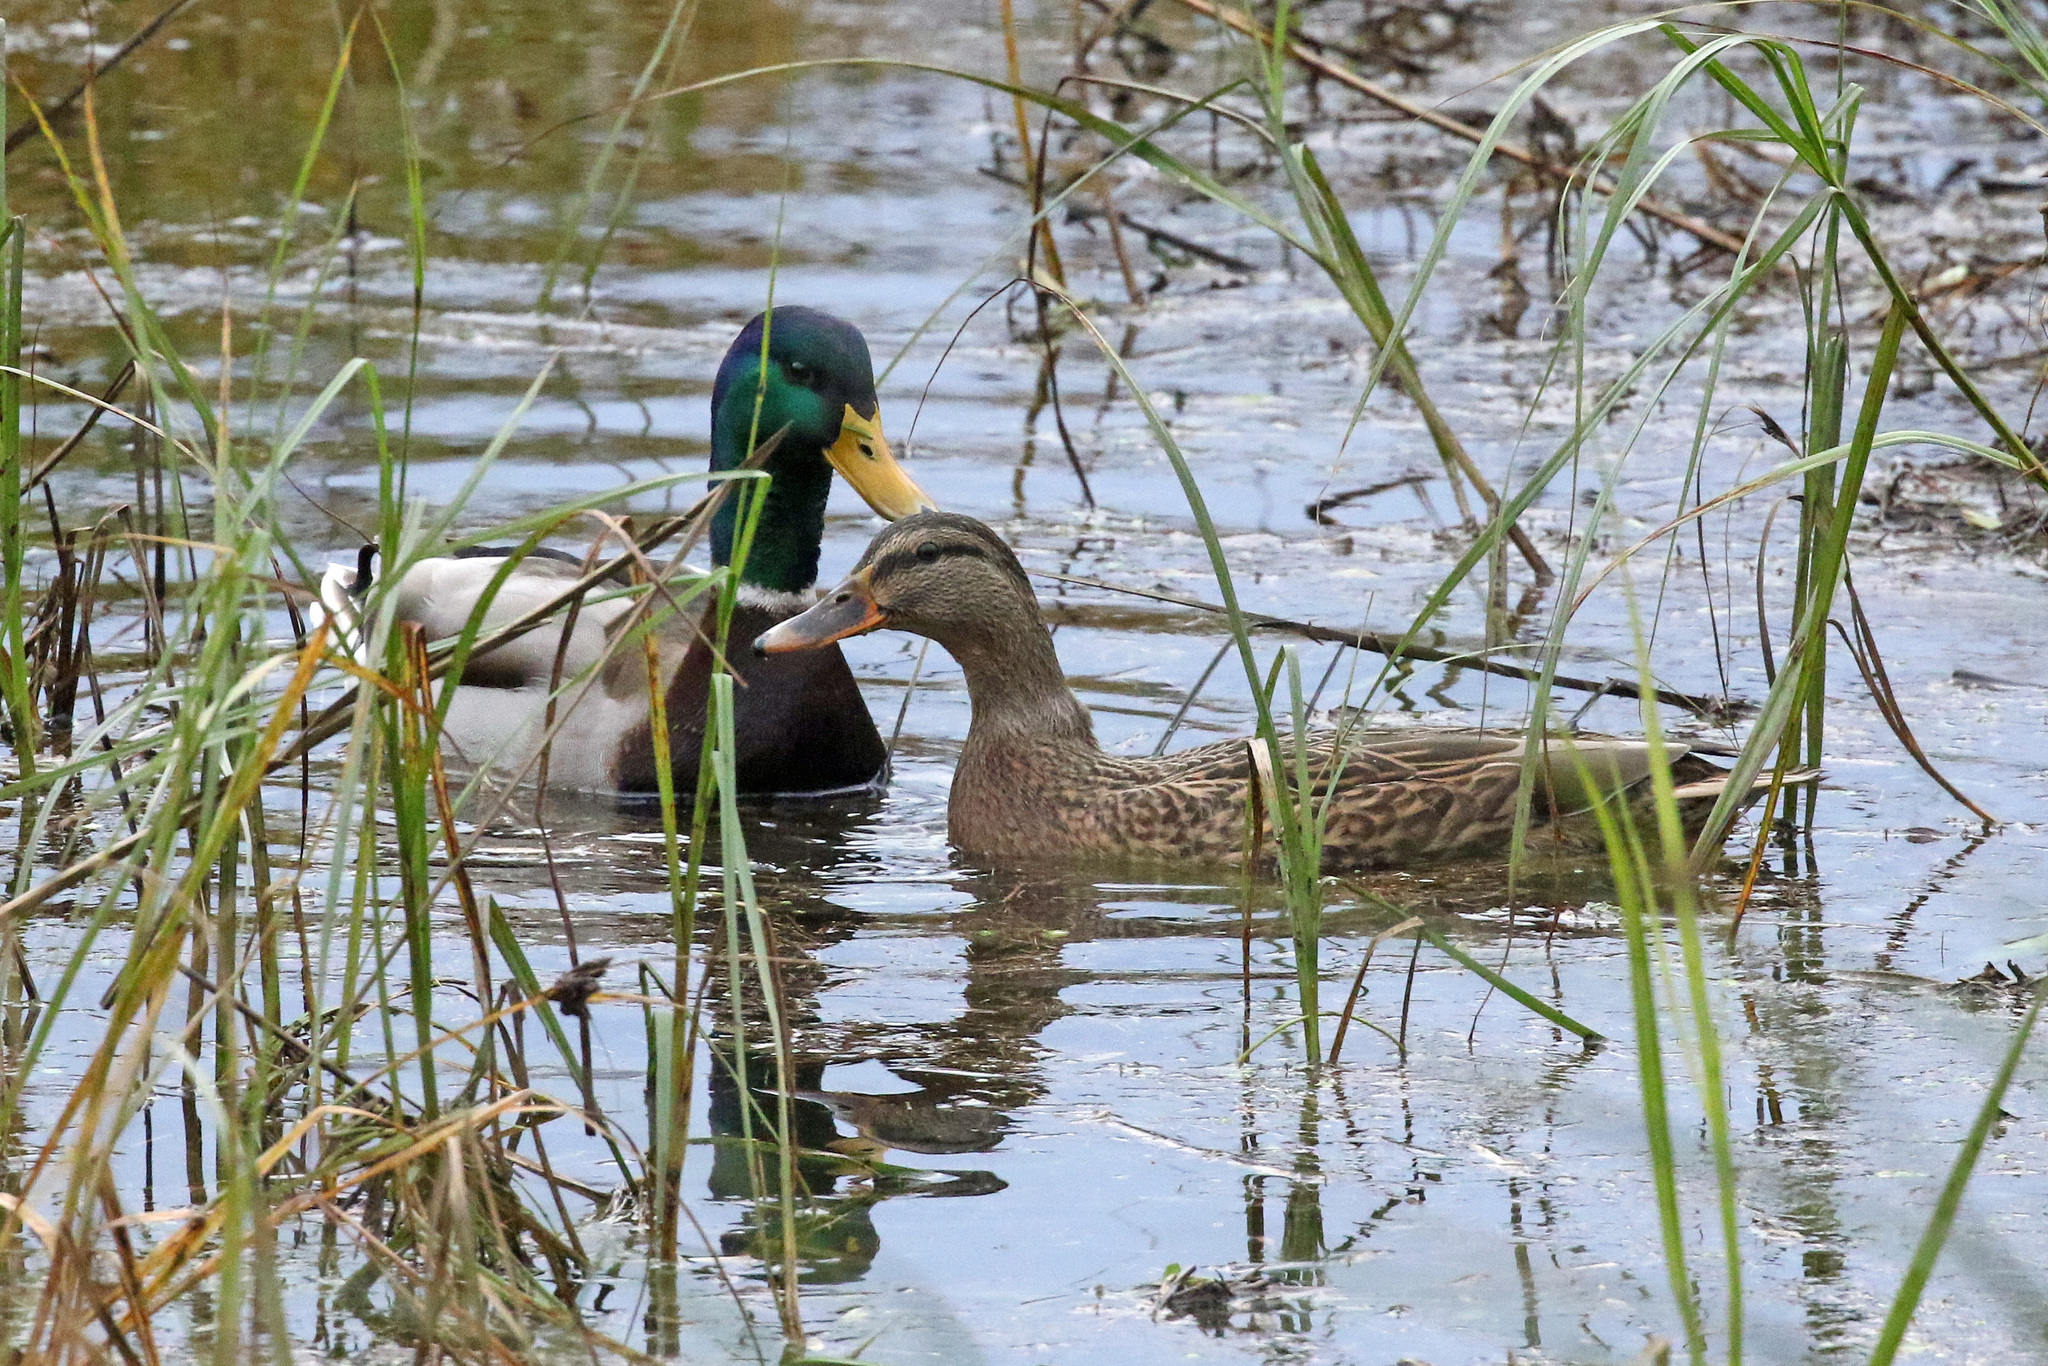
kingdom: Animalia
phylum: Chordata
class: Aves
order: Anseriformes
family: Anatidae
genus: Anas
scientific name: Anas platyrhynchos
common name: Mallard
